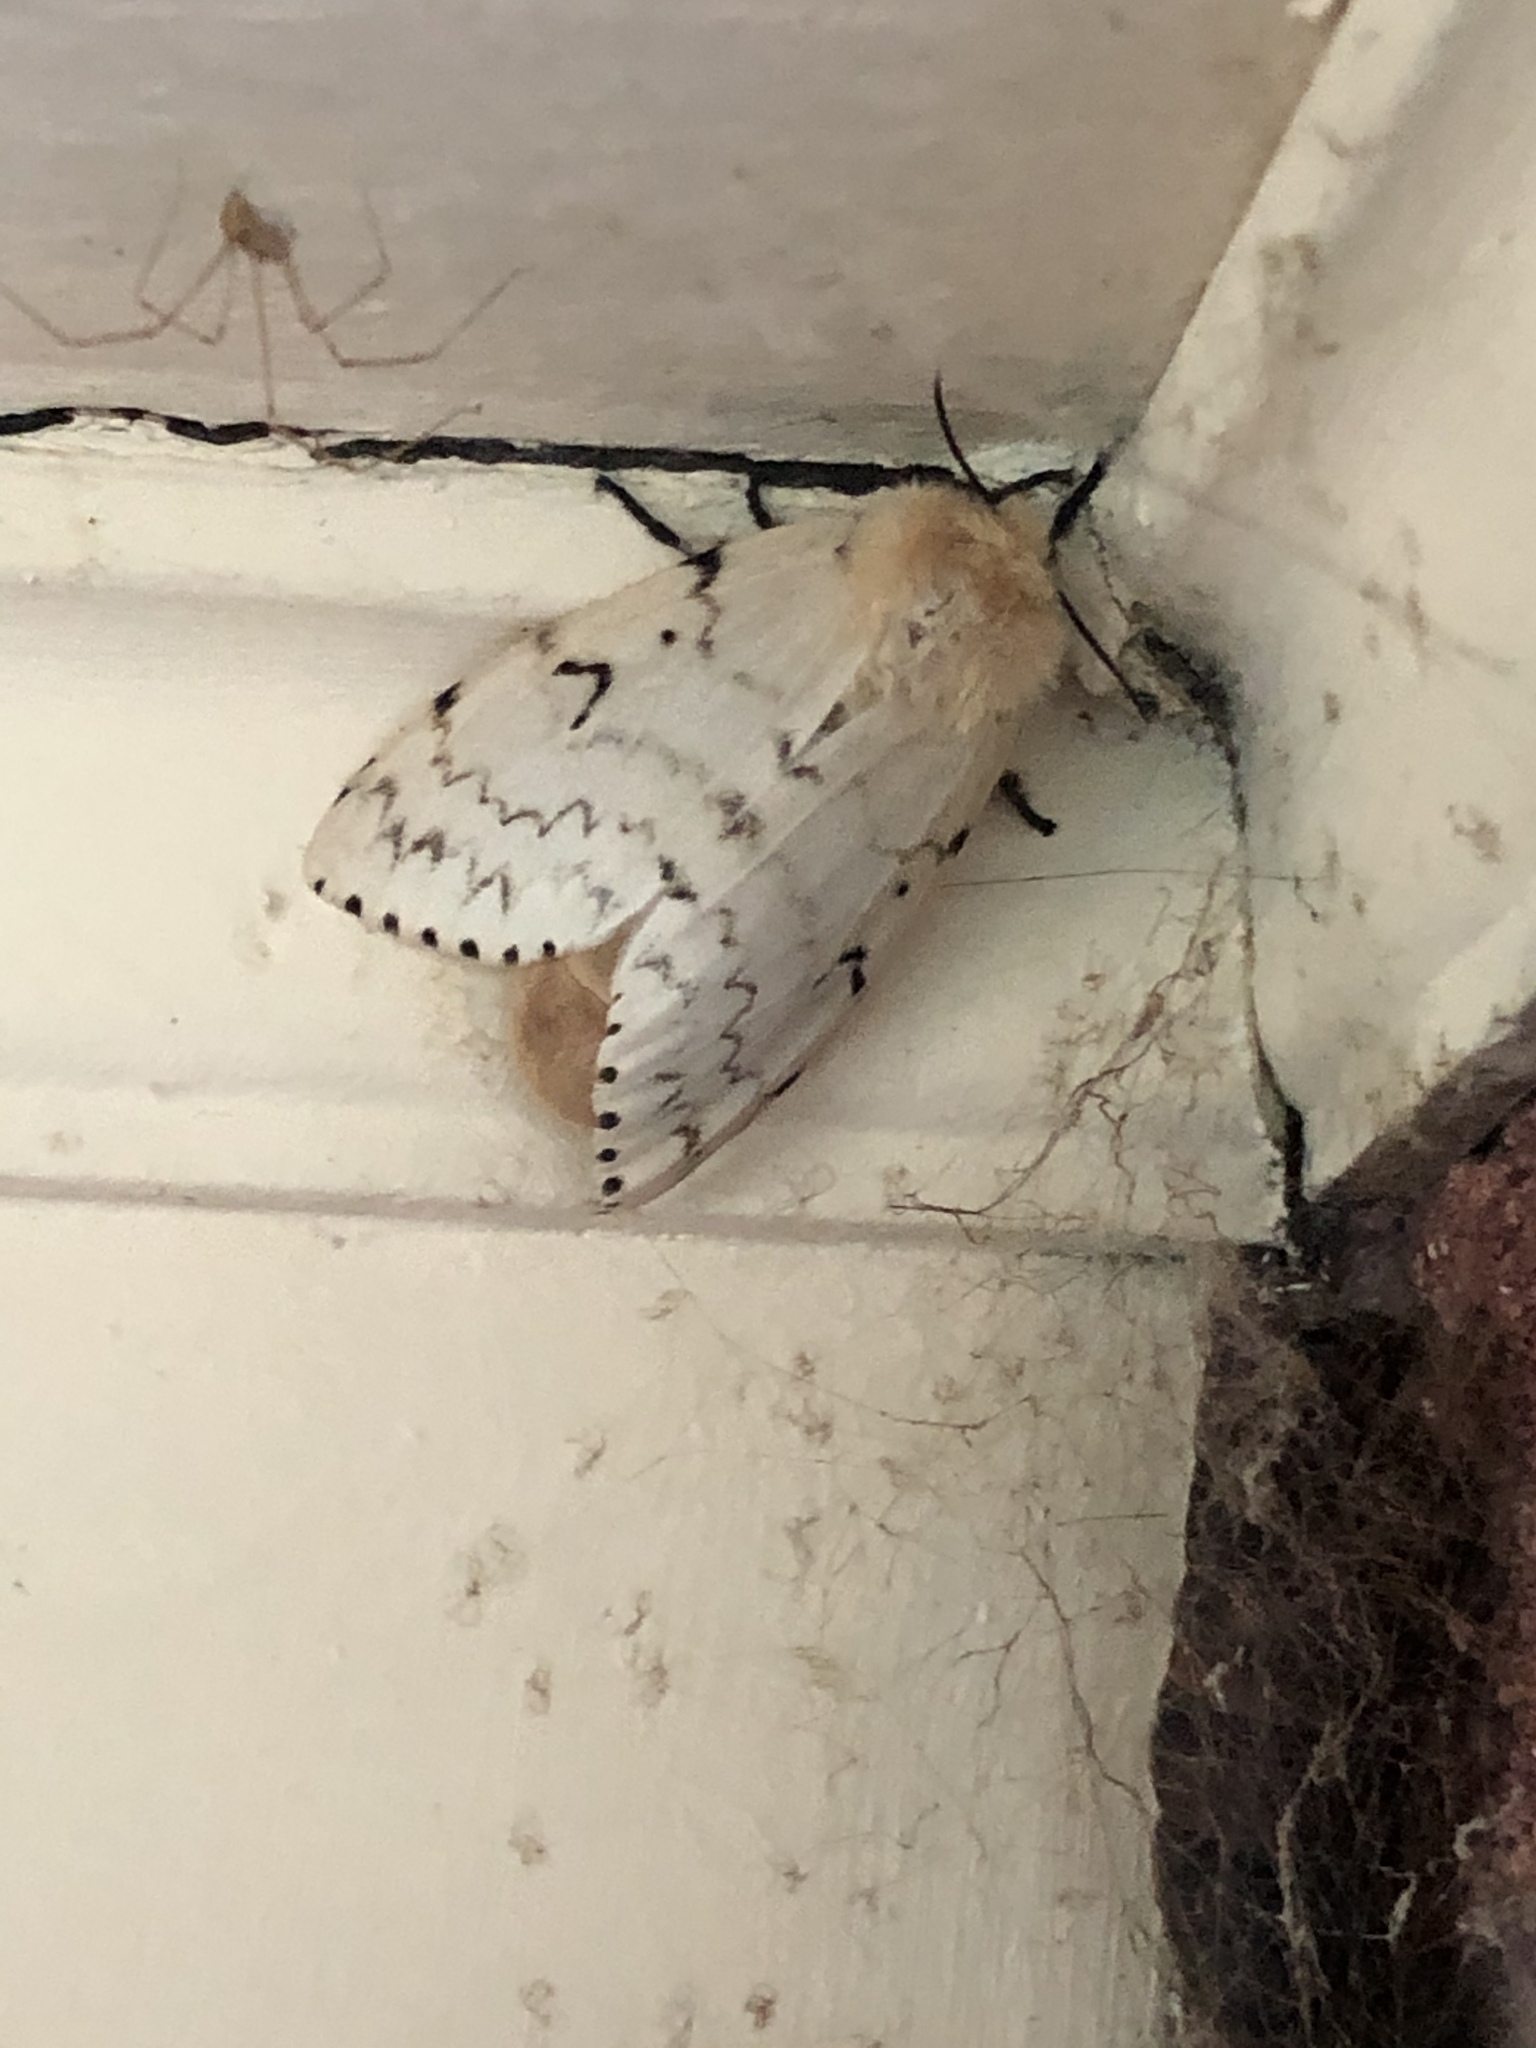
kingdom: Animalia
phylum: Arthropoda
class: Insecta
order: Lepidoptera
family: Erebidae
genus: Lymantria
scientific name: Lymantria dispar
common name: Gypsy moth
